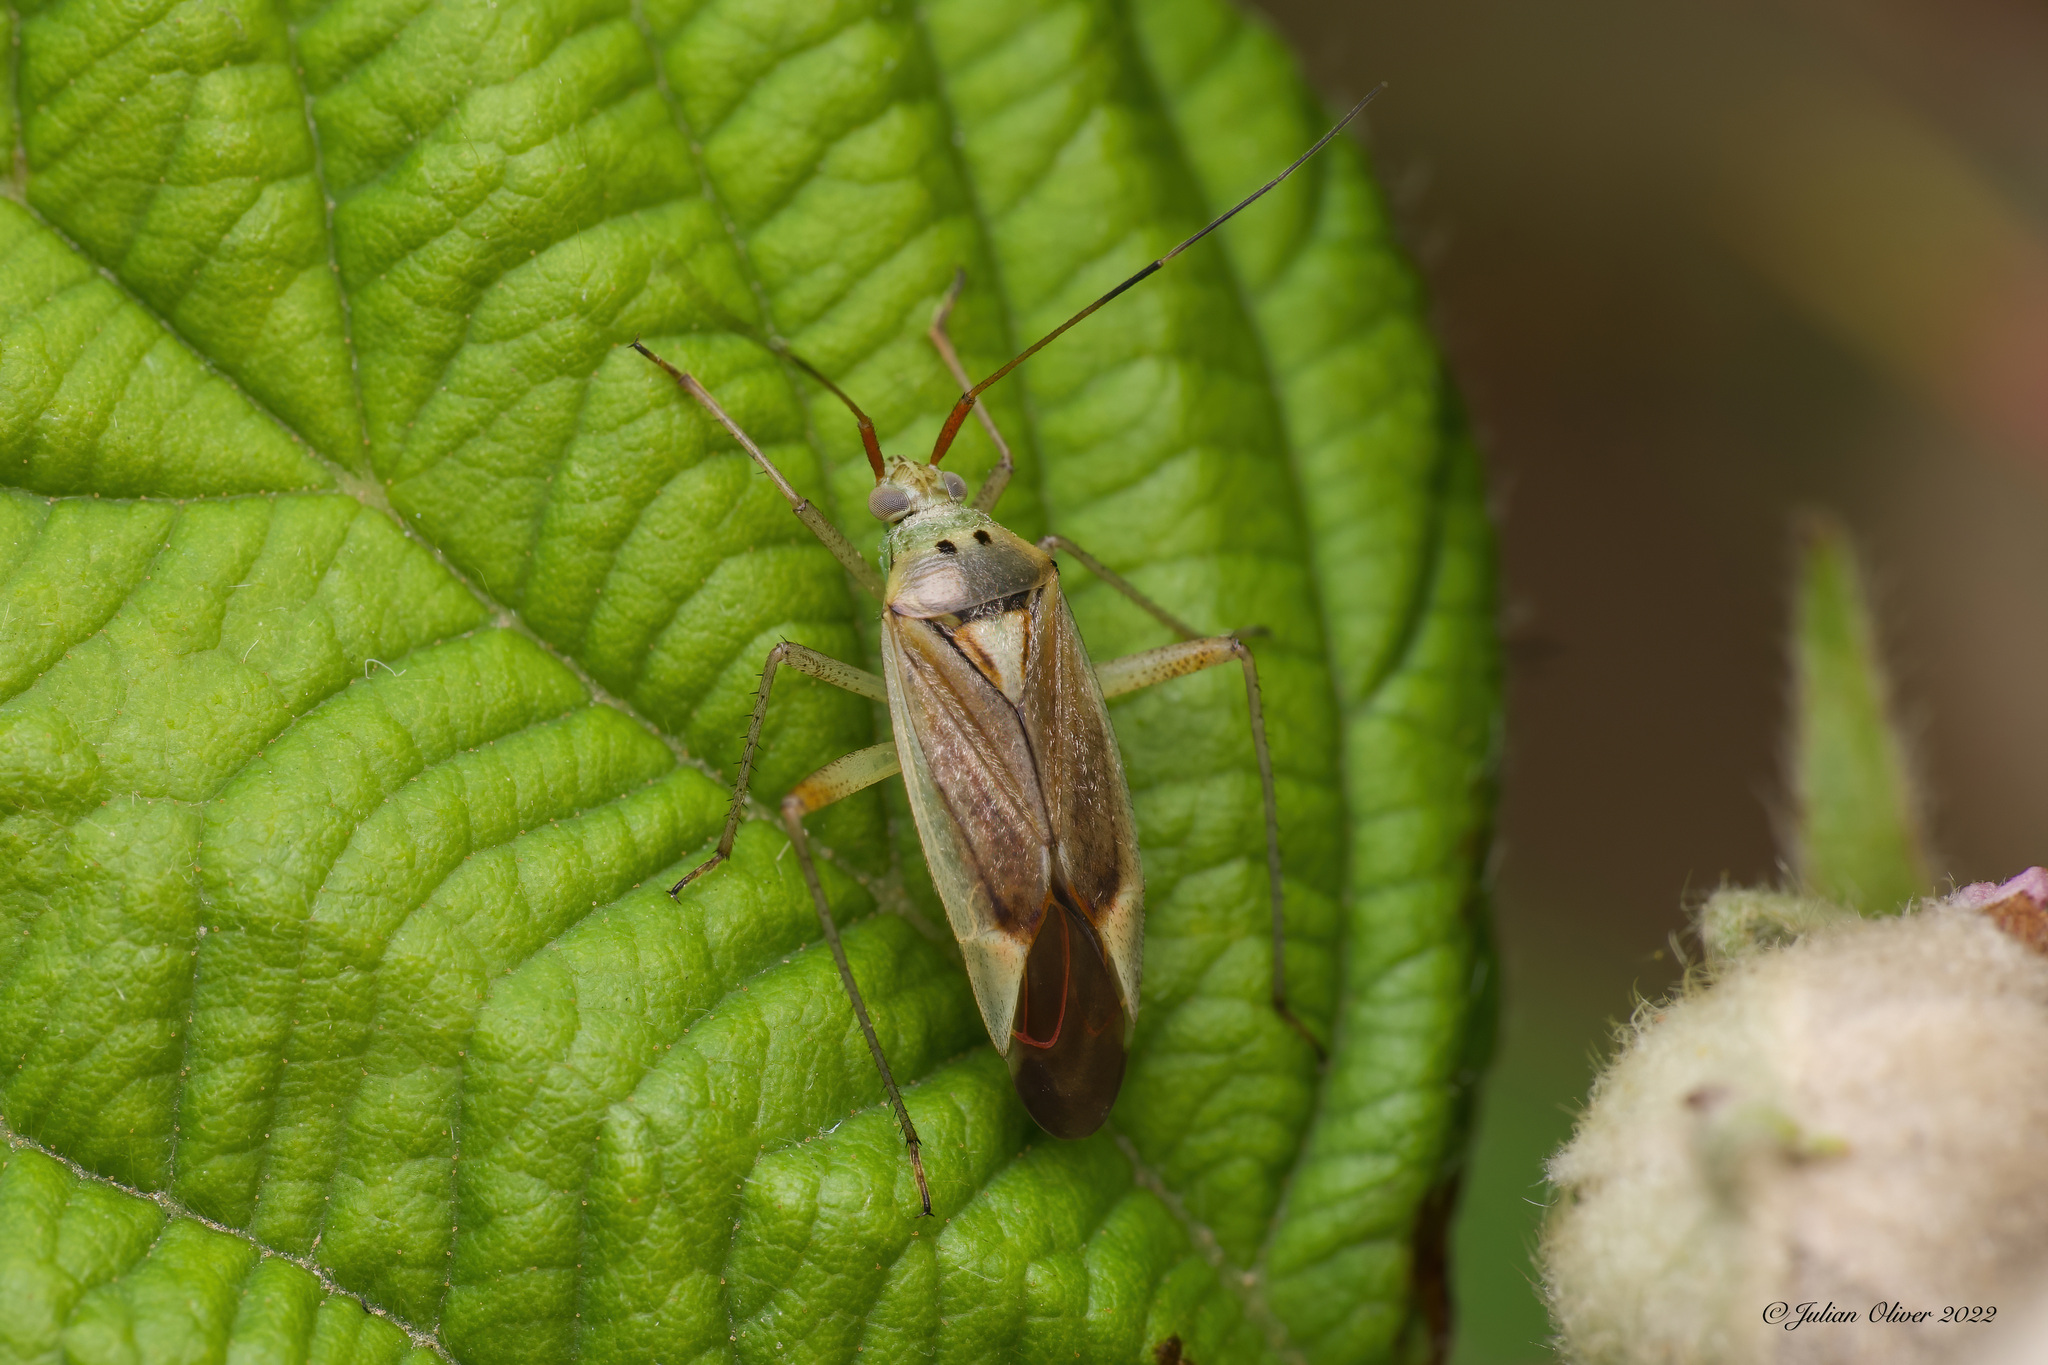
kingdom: Animalia
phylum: Arthropoda
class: Insecta
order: Hemiptera
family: Miridae
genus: Closterotomus
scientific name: Closterotomus trivialis
